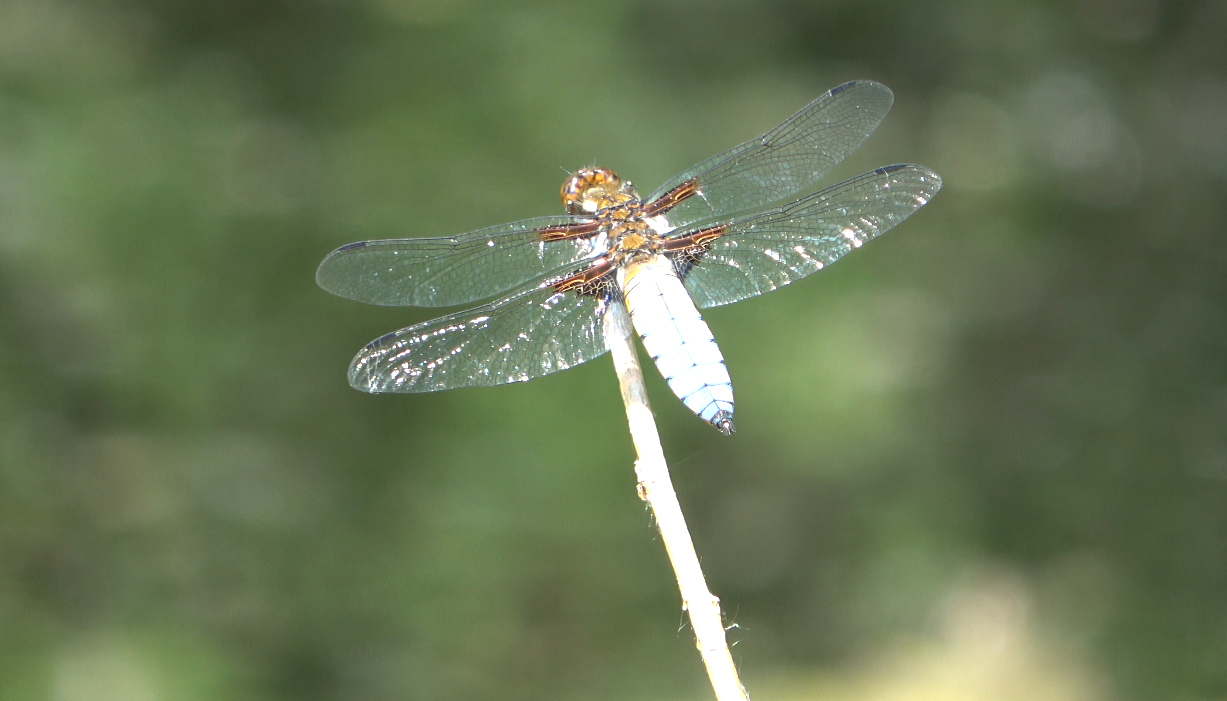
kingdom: Animalia
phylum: Arthropoda
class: Insecta
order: Odonata
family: Libellulidae
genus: Libellula
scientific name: Libellula depressa
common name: Broad-bodied chaser
